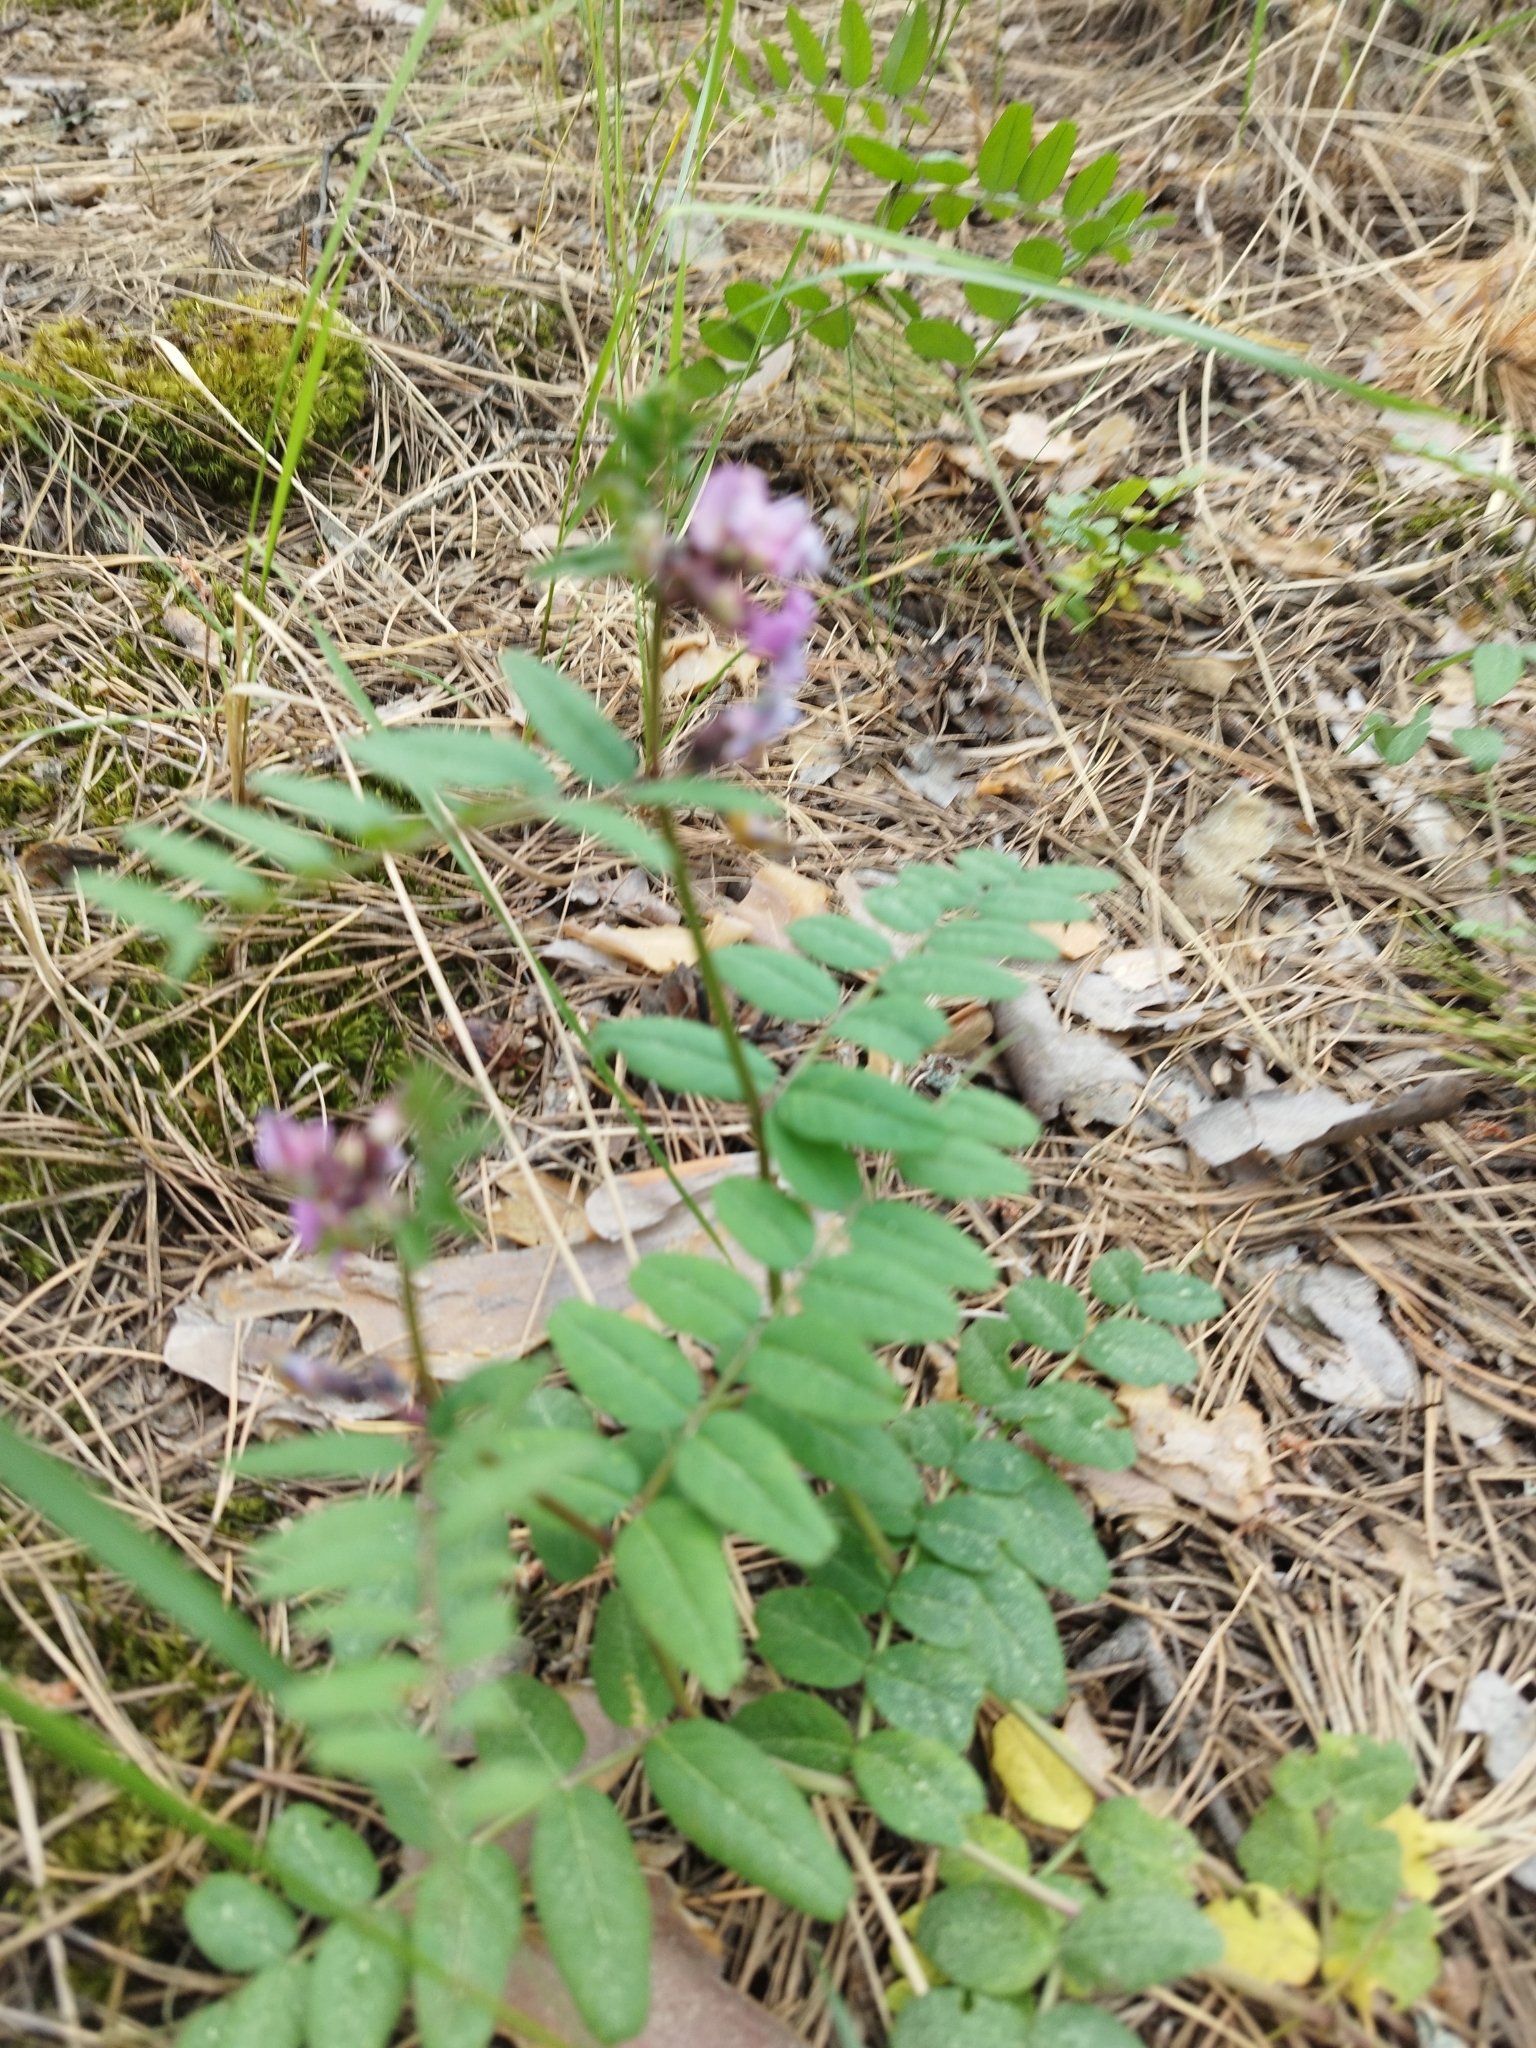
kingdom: Plantae
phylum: Tracheophyta
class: Magnoliopsida
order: Fabales
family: Fabaceae
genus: Vicia
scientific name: Vicia sepium
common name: Bush vetch
